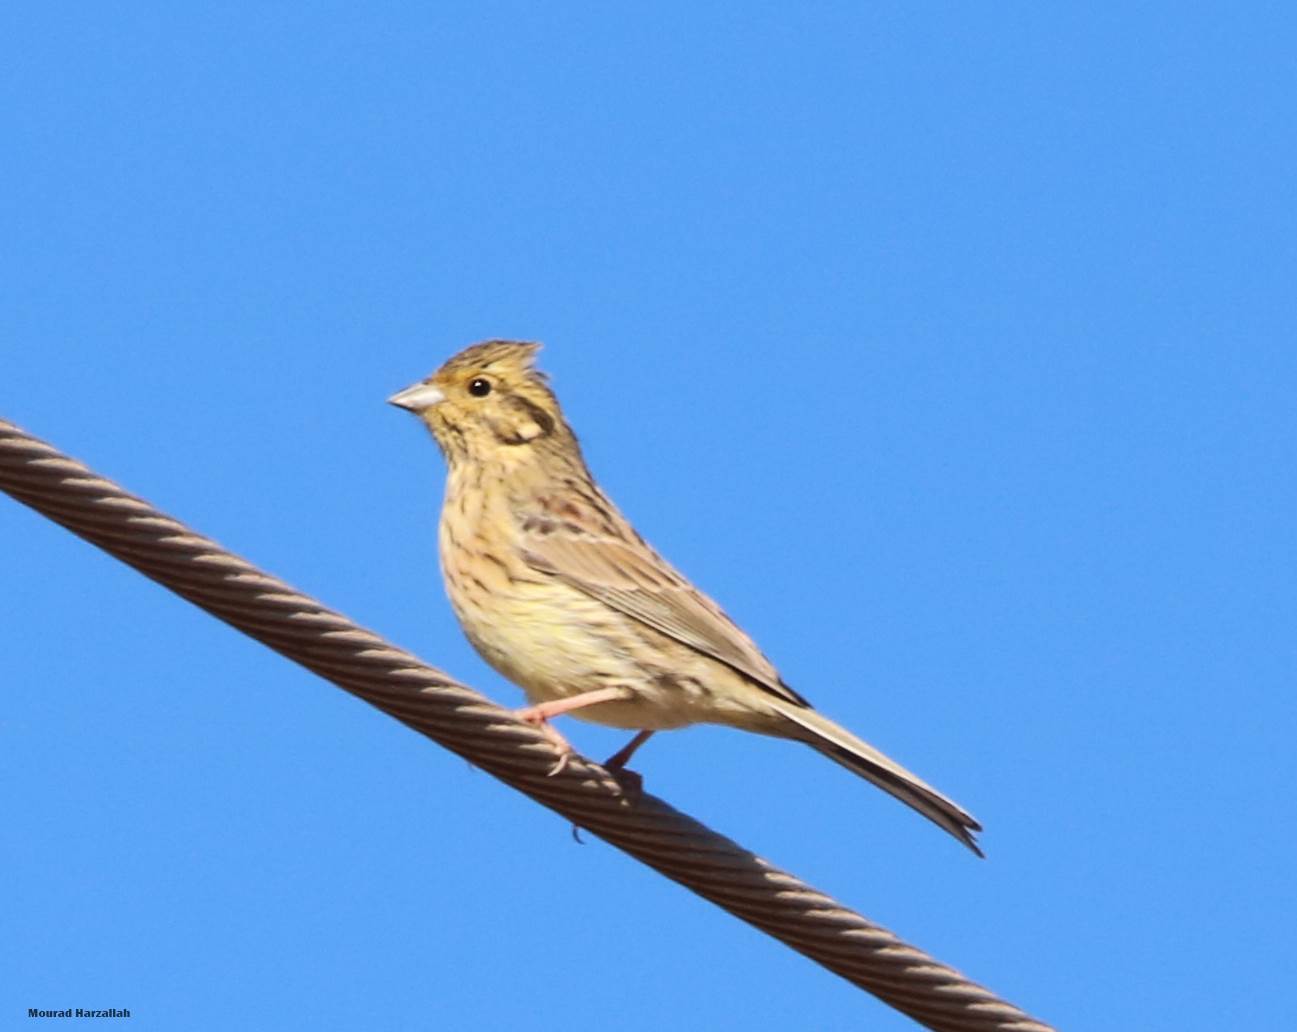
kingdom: Animalia
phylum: Chordata
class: Aves
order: Passeriformes
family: Emberizidae
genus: Emberiza
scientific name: Emberiza cirlus
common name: Cirl bunting
